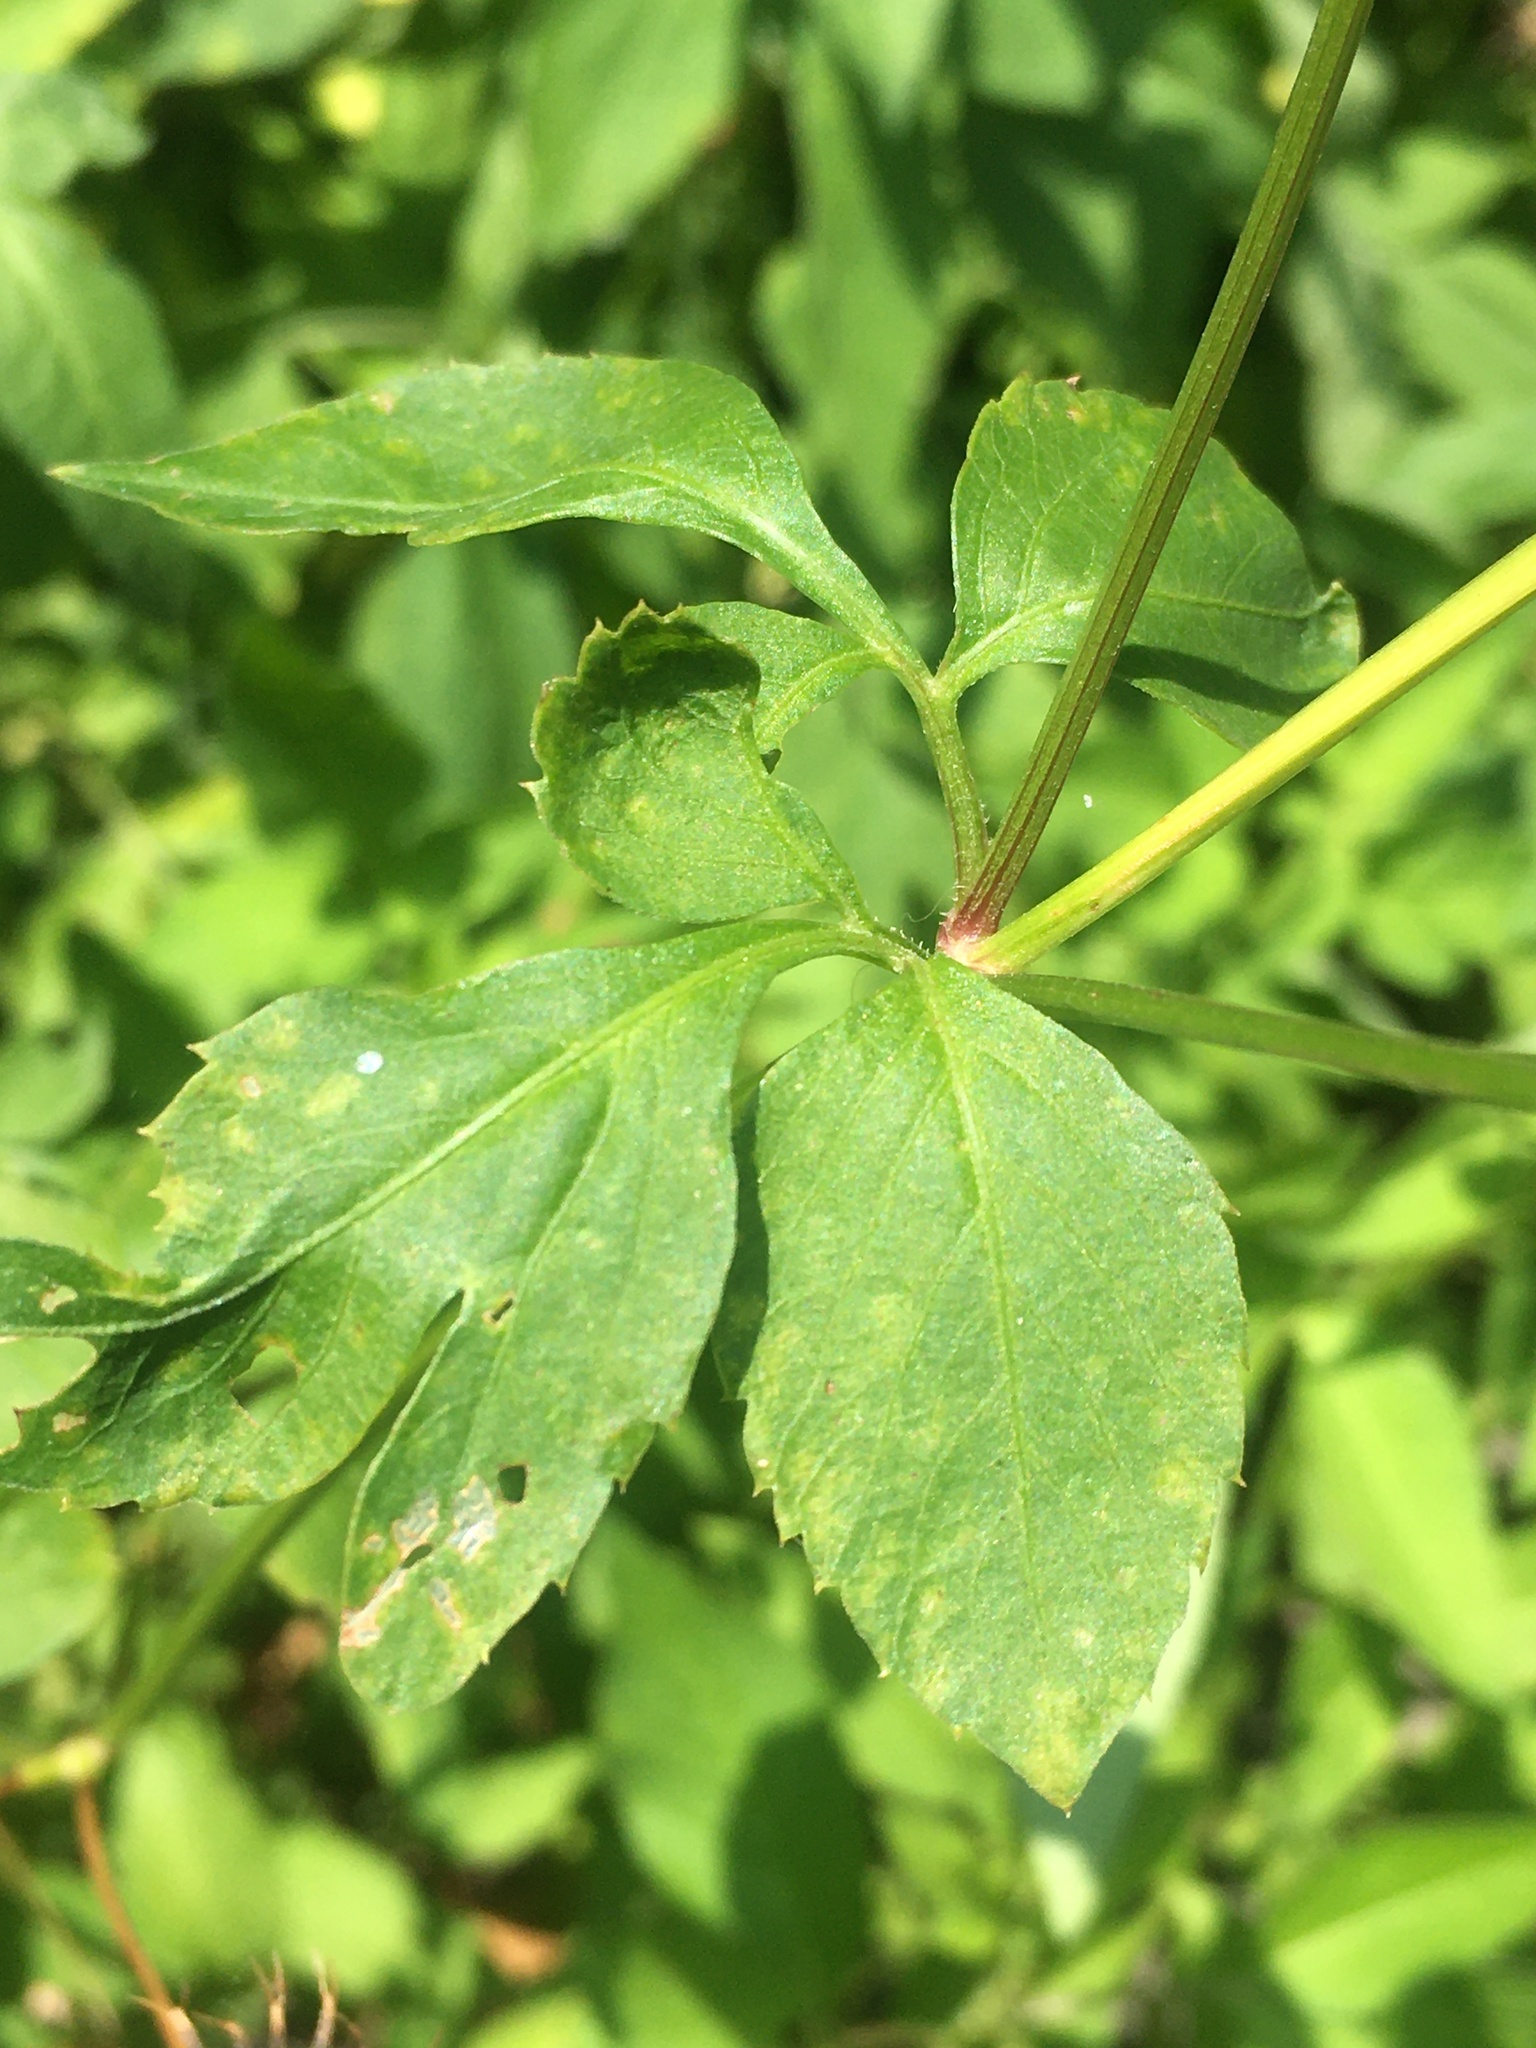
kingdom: Plantae
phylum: Tracheophyta
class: Magnoliopsida
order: Asterales
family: Asteraceae
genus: Bidens
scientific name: Bidens alba
